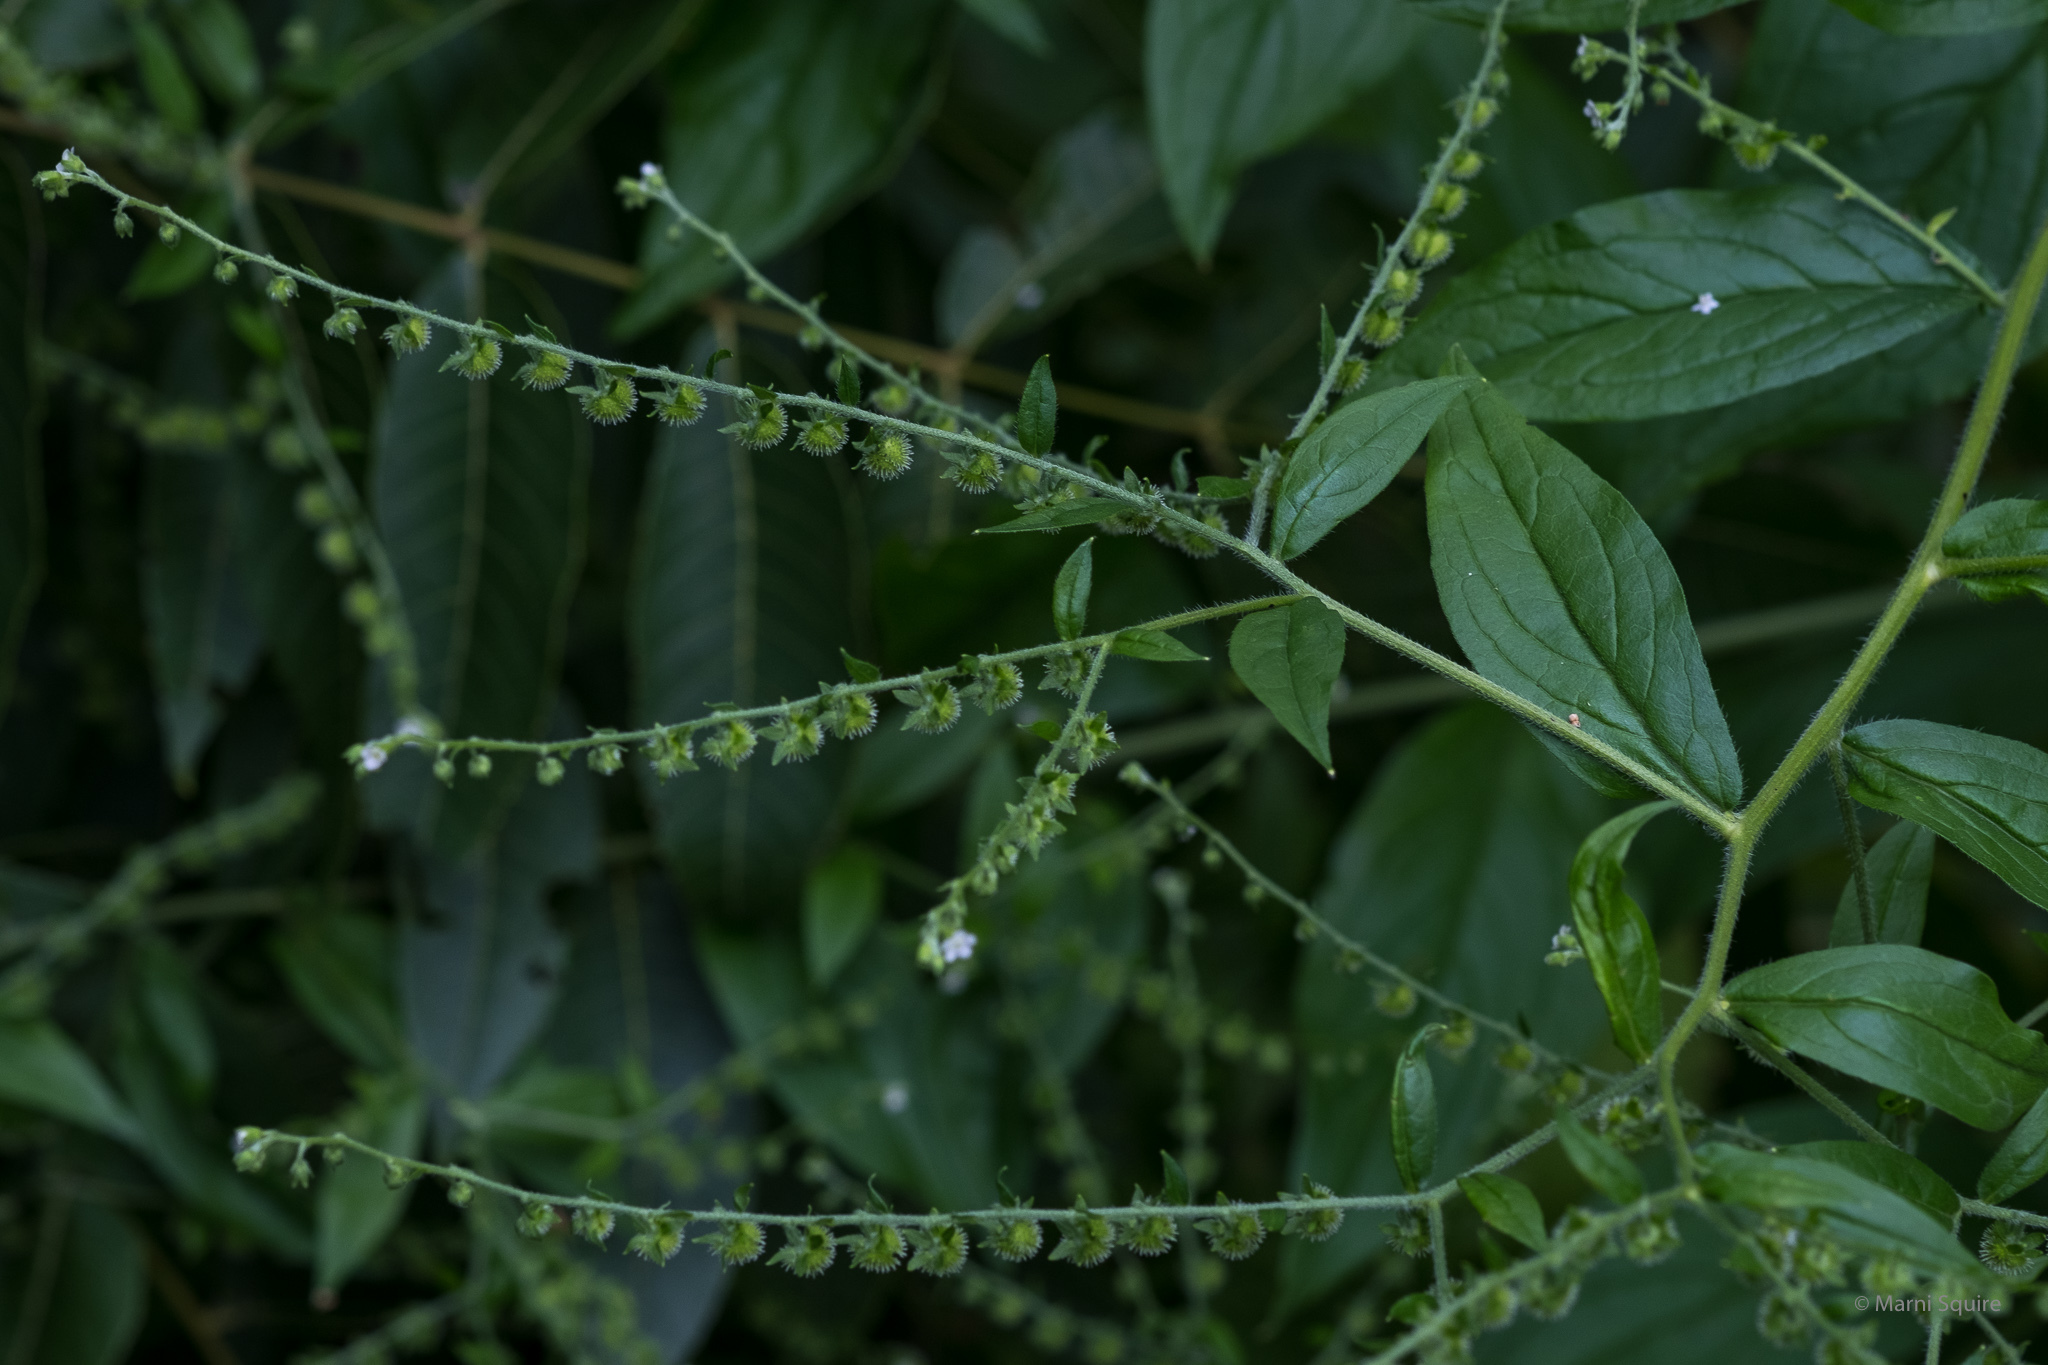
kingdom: Plantae
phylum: Tracheophyta
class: Magnoliopsida
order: Boraginales
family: Boraginaceae
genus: Hackelia
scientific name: Hackelia virginiana
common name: Beggar's-lice
